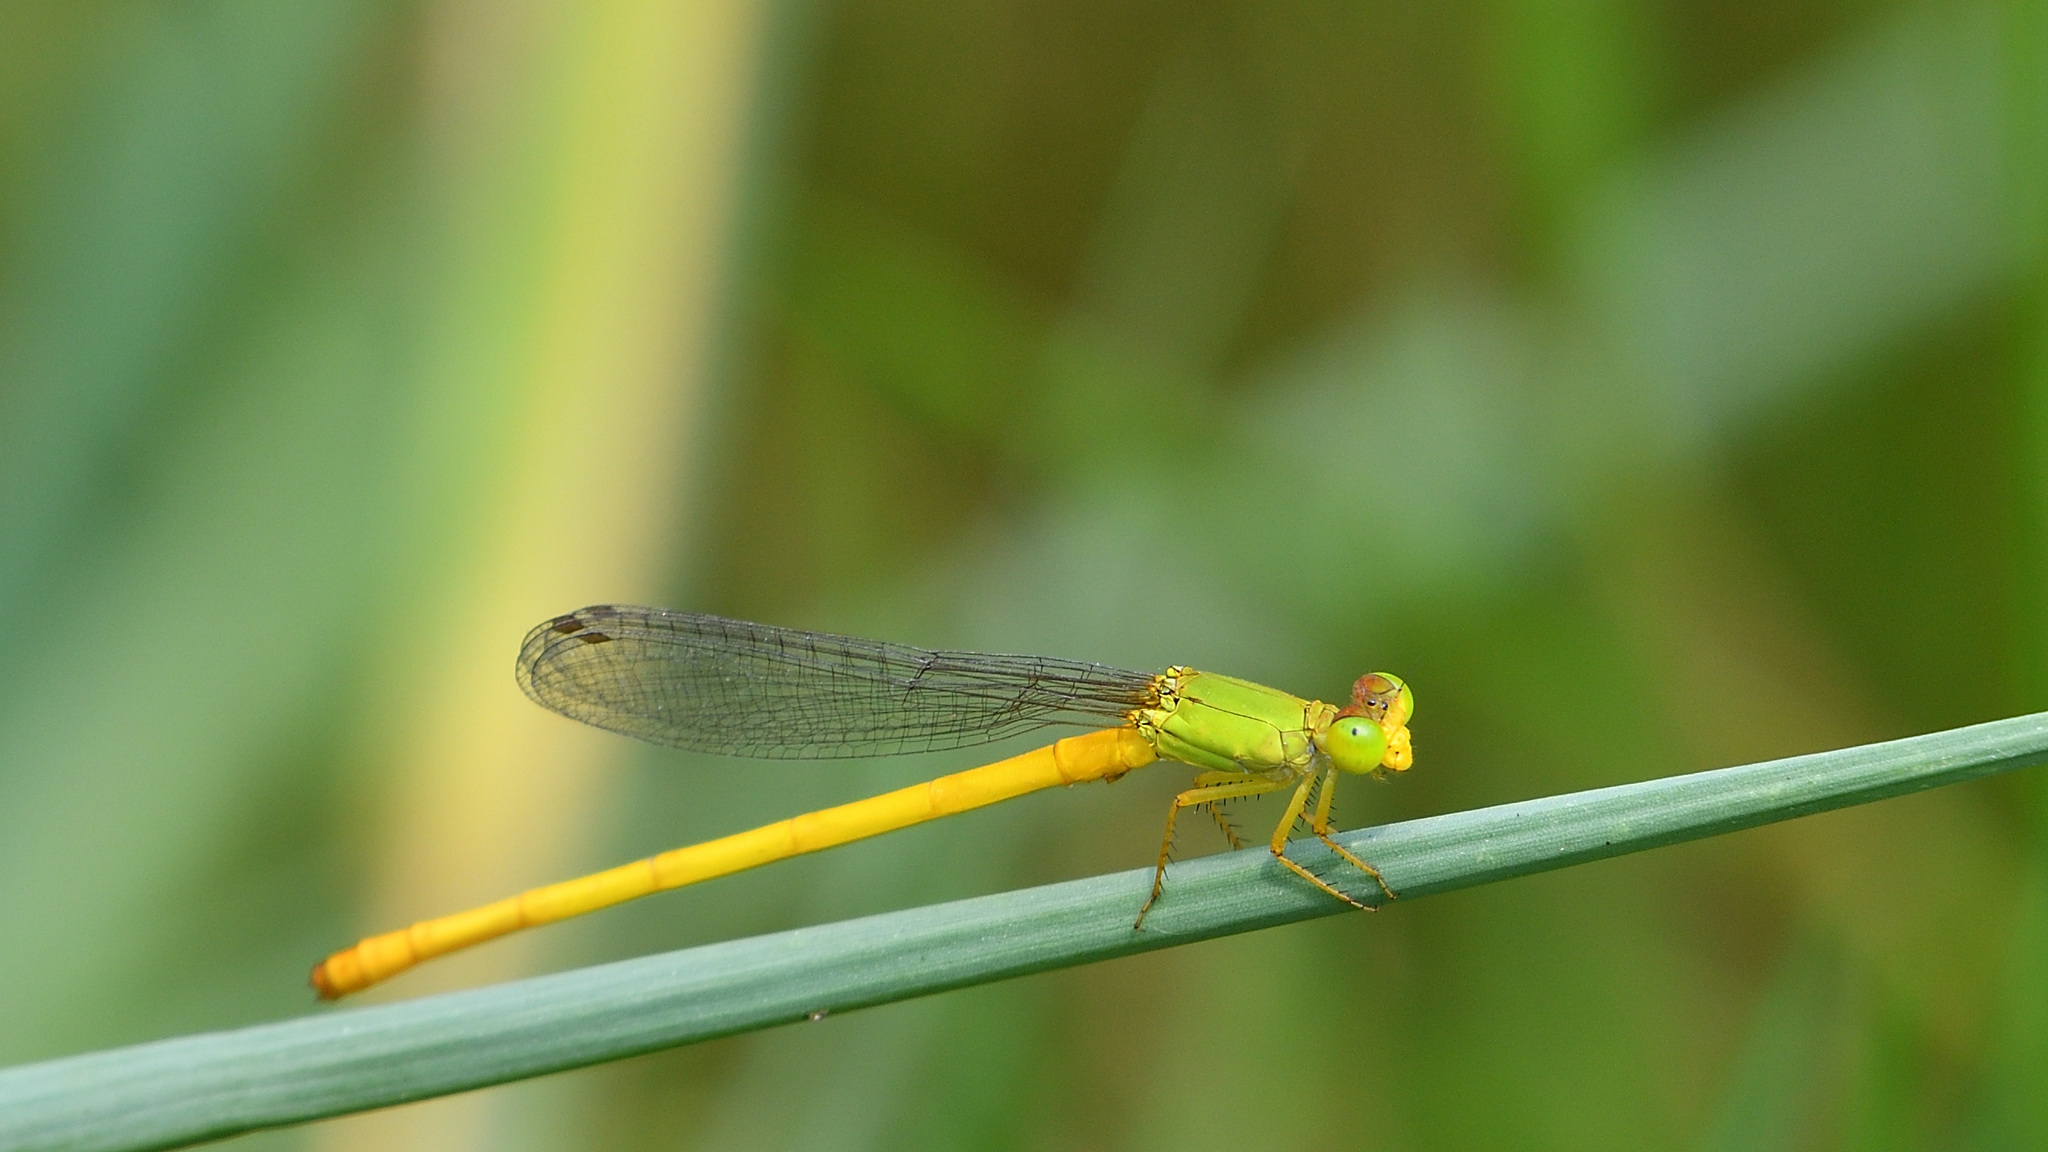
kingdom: Animalia
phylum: Arthropoda
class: Insecta
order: Odonata
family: Coenagrionidae
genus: Ceriagrion
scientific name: Ceriagrion coromandelianum
